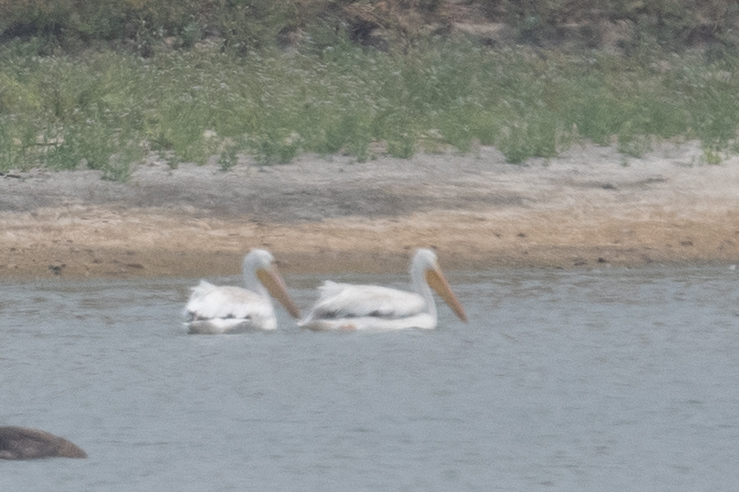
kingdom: Animalia
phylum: Chordata
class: Aves
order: Pelecaniformes
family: Pelecanidae
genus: Pelecanus
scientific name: Pelecanus erythrorhynchos
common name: American white pelican
